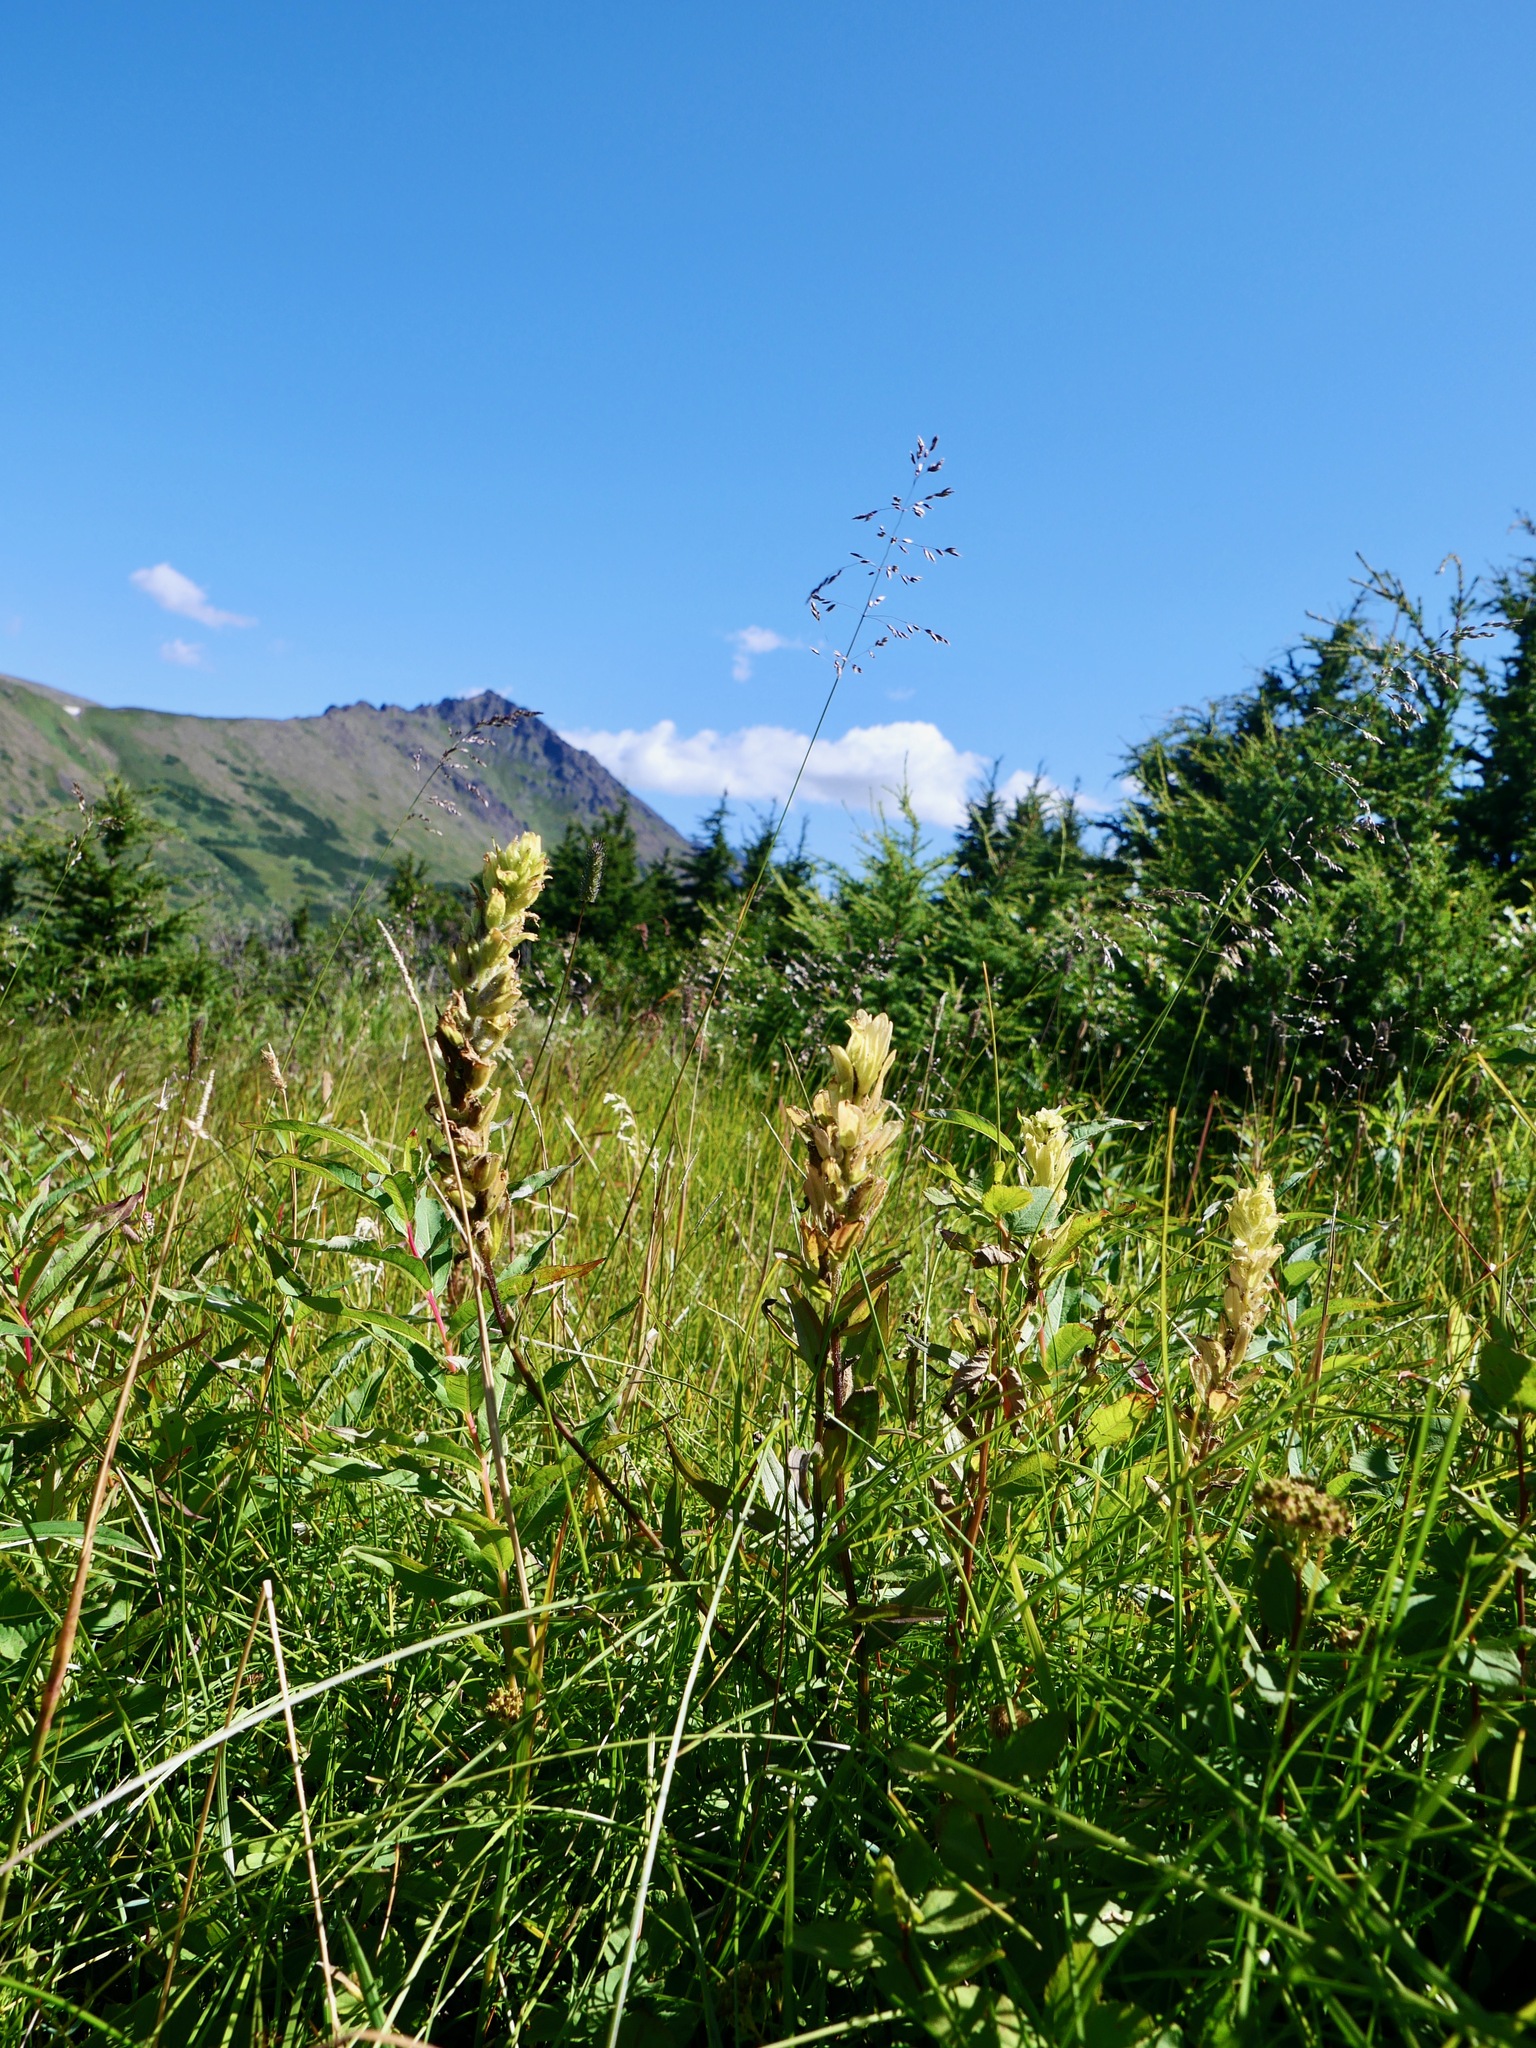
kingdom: Plantae
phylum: Tracheophyta
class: Magnoliopsida
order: Lamiales
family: Orobanchaceae
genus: Castilleja
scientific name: Castilleja unalaschcensis
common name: Unalaska paintbrush
